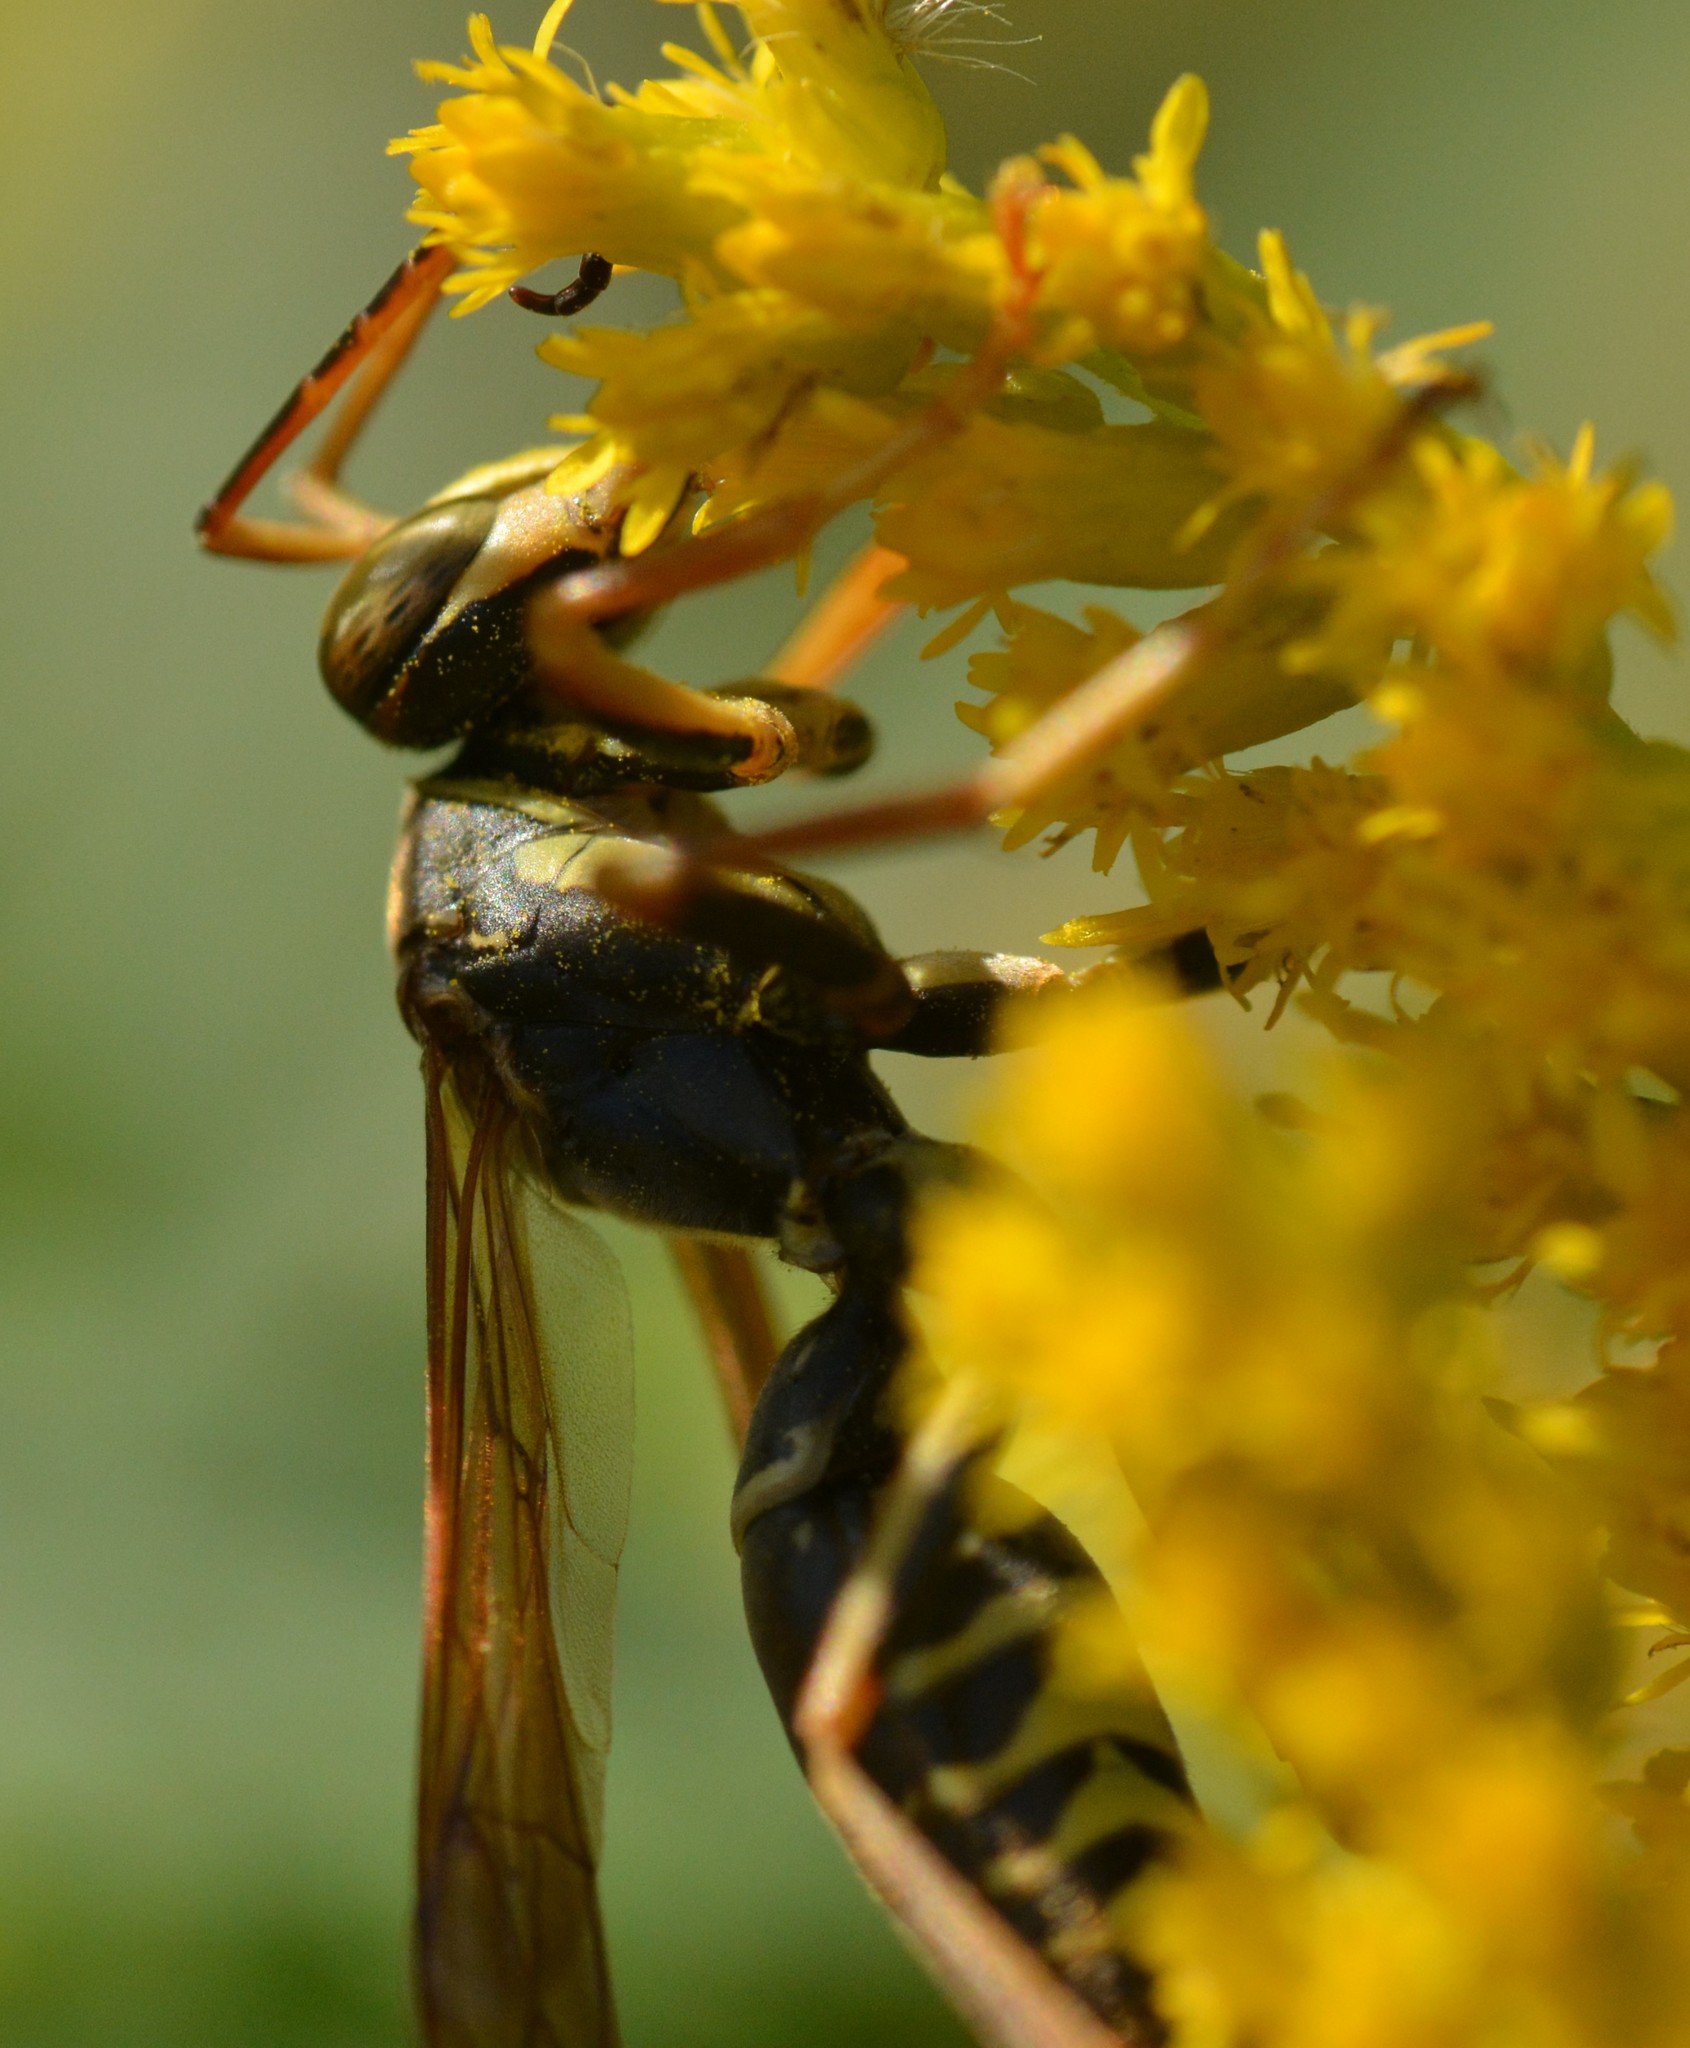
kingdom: Animalia
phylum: Arthropoda
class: Insecta
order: Hymenoptera
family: Eumenidae
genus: Polistes
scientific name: Polistes fuscatus
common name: Dark paper wasp
